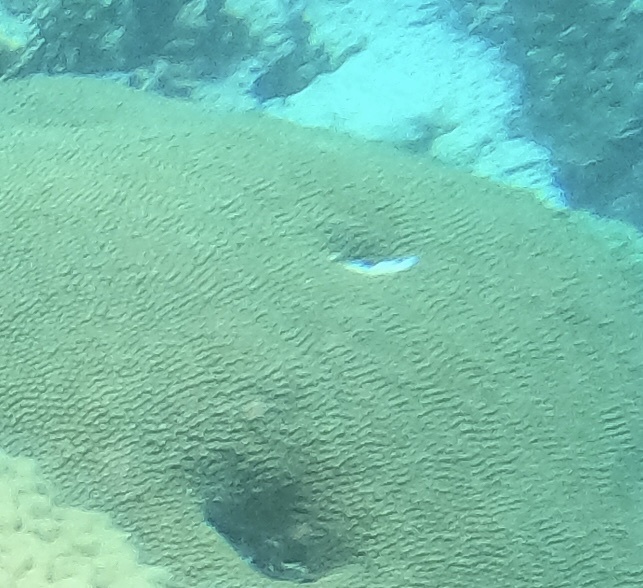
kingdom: Animalia
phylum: Cnidaria
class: Anthozoa
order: Scleractinia
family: Diploastraeidae
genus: Diploastrea
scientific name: Diploastrea heliopora
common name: Double-star coral
